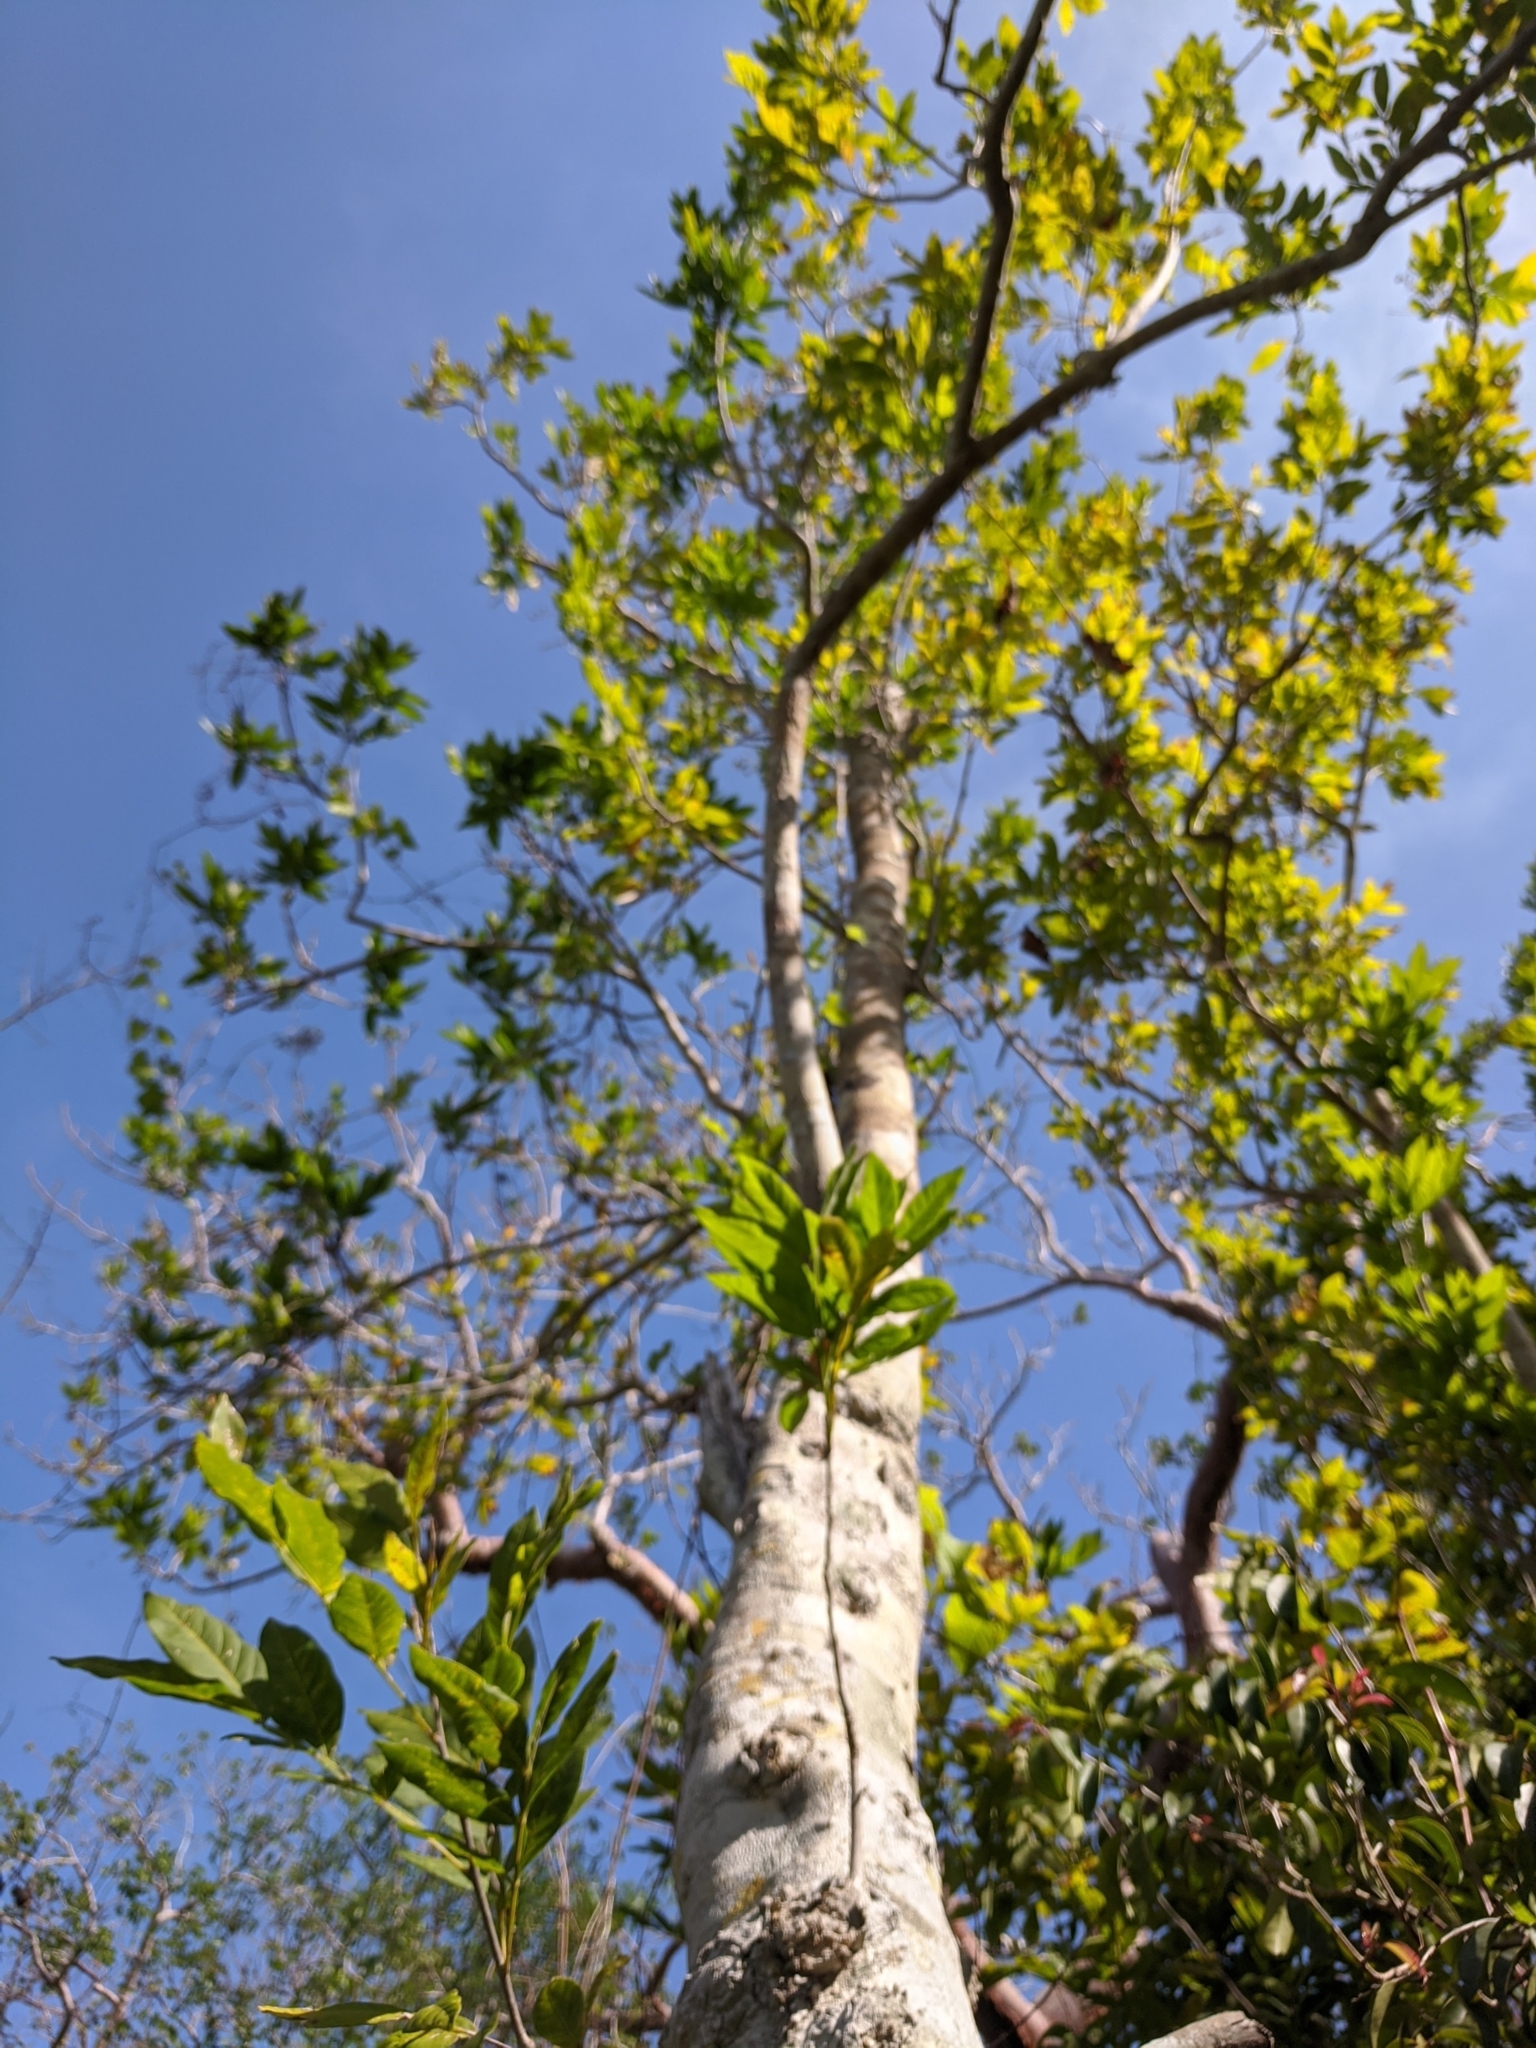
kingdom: Plantae
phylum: Tracheophyta
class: Magnoliopsida
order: Sapindales
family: Sapindaceae
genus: Sapindus
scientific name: Sapindus saponaria
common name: Wingleaf soapberry
